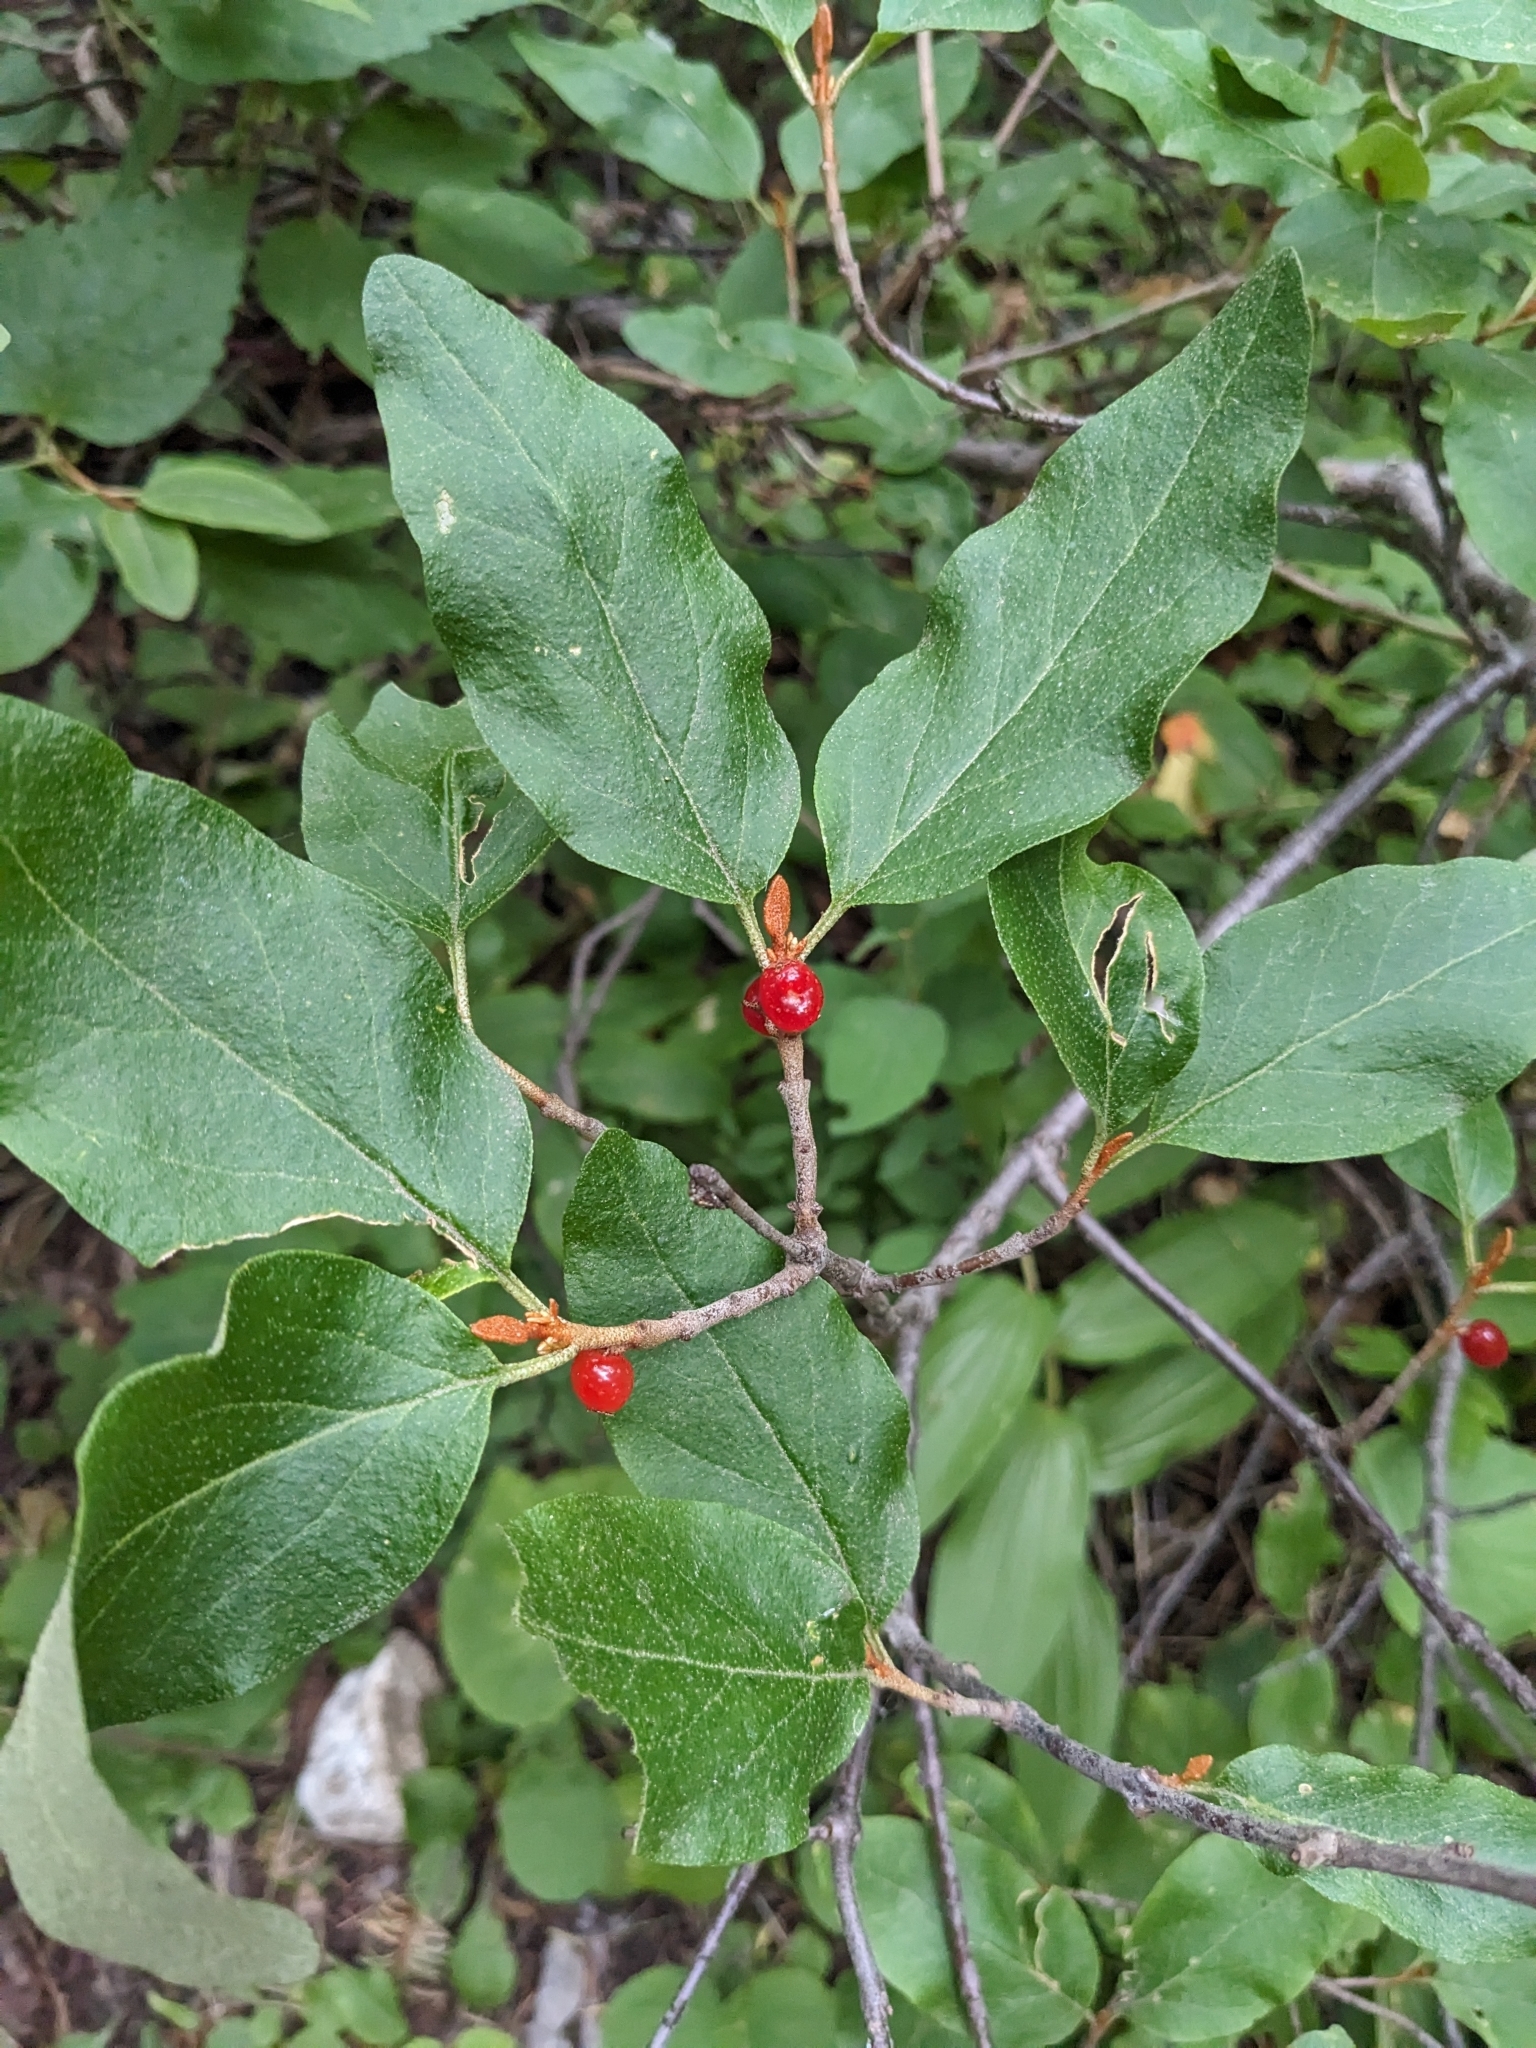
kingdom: Plantae
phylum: Tracheophyta
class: Magnoliopsida
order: Rosales
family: Elaeagnaceae
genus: Shepherdia
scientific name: Shepherdia canadensis
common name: Soapberry
